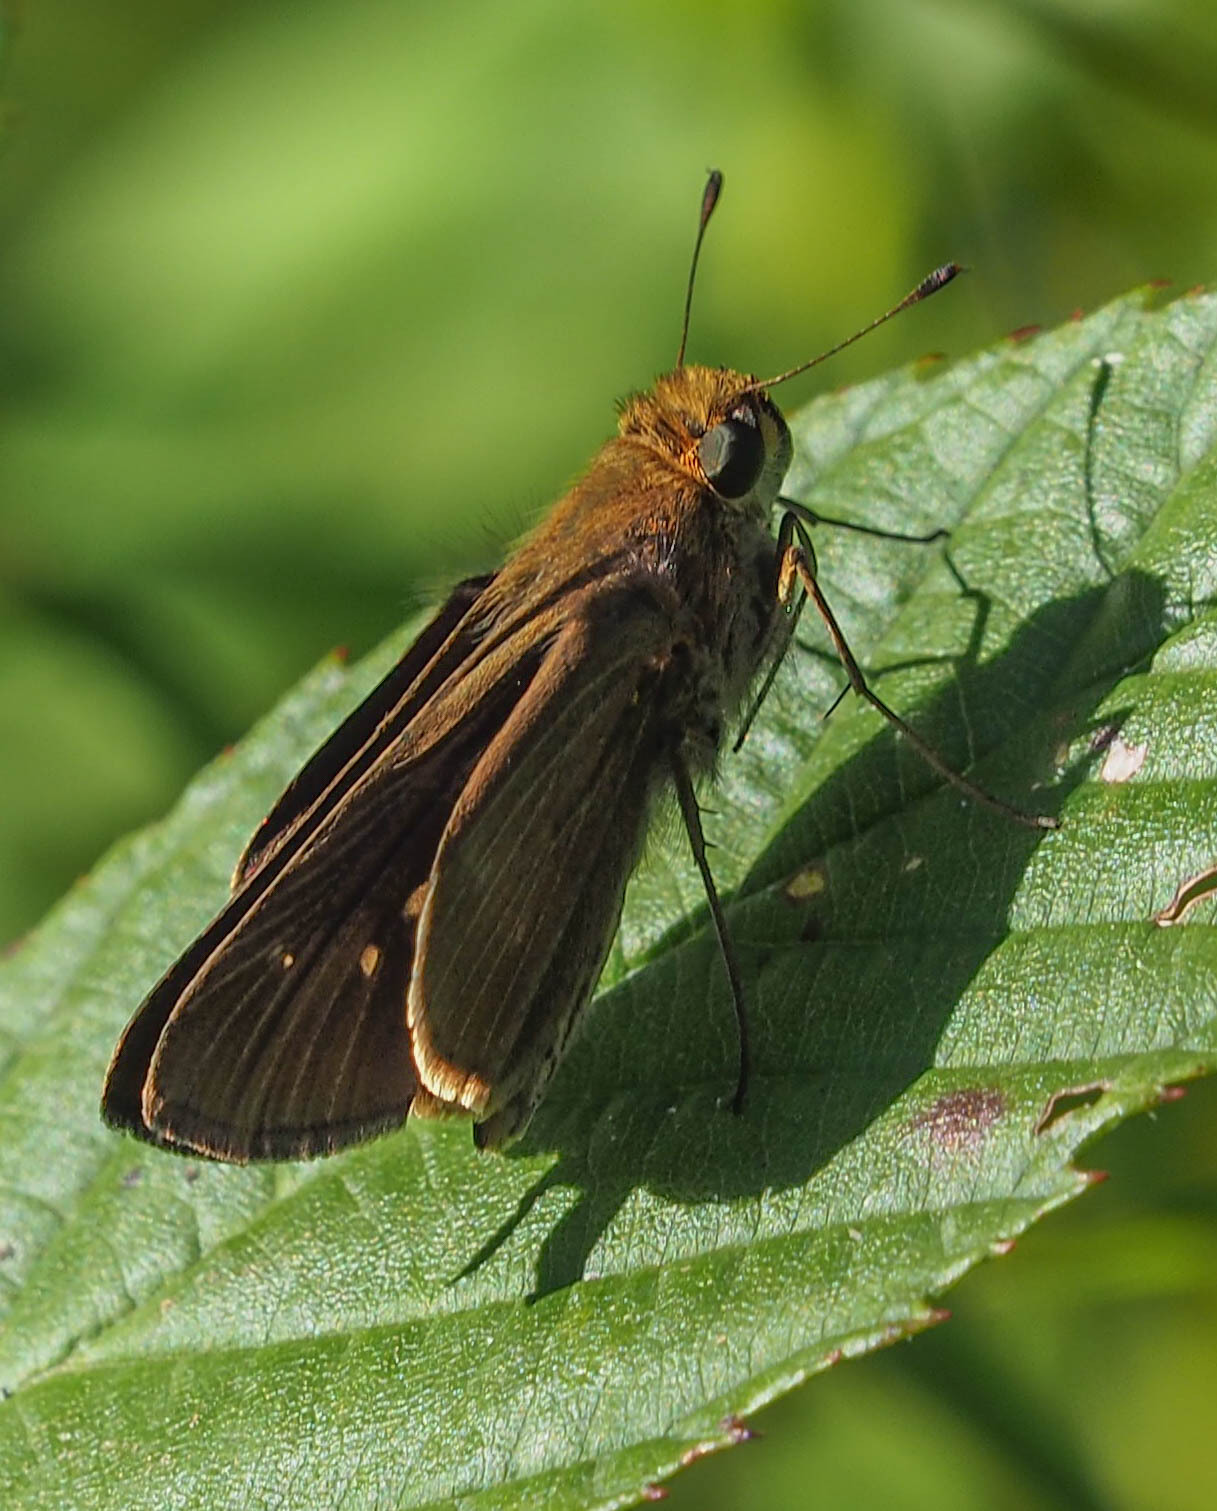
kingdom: Animalia
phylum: Arthropoda
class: Insecta
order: Lepidoptera
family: Hesperiidae
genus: Panoquina
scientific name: Panoquina ocola
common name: Ocola skipper
